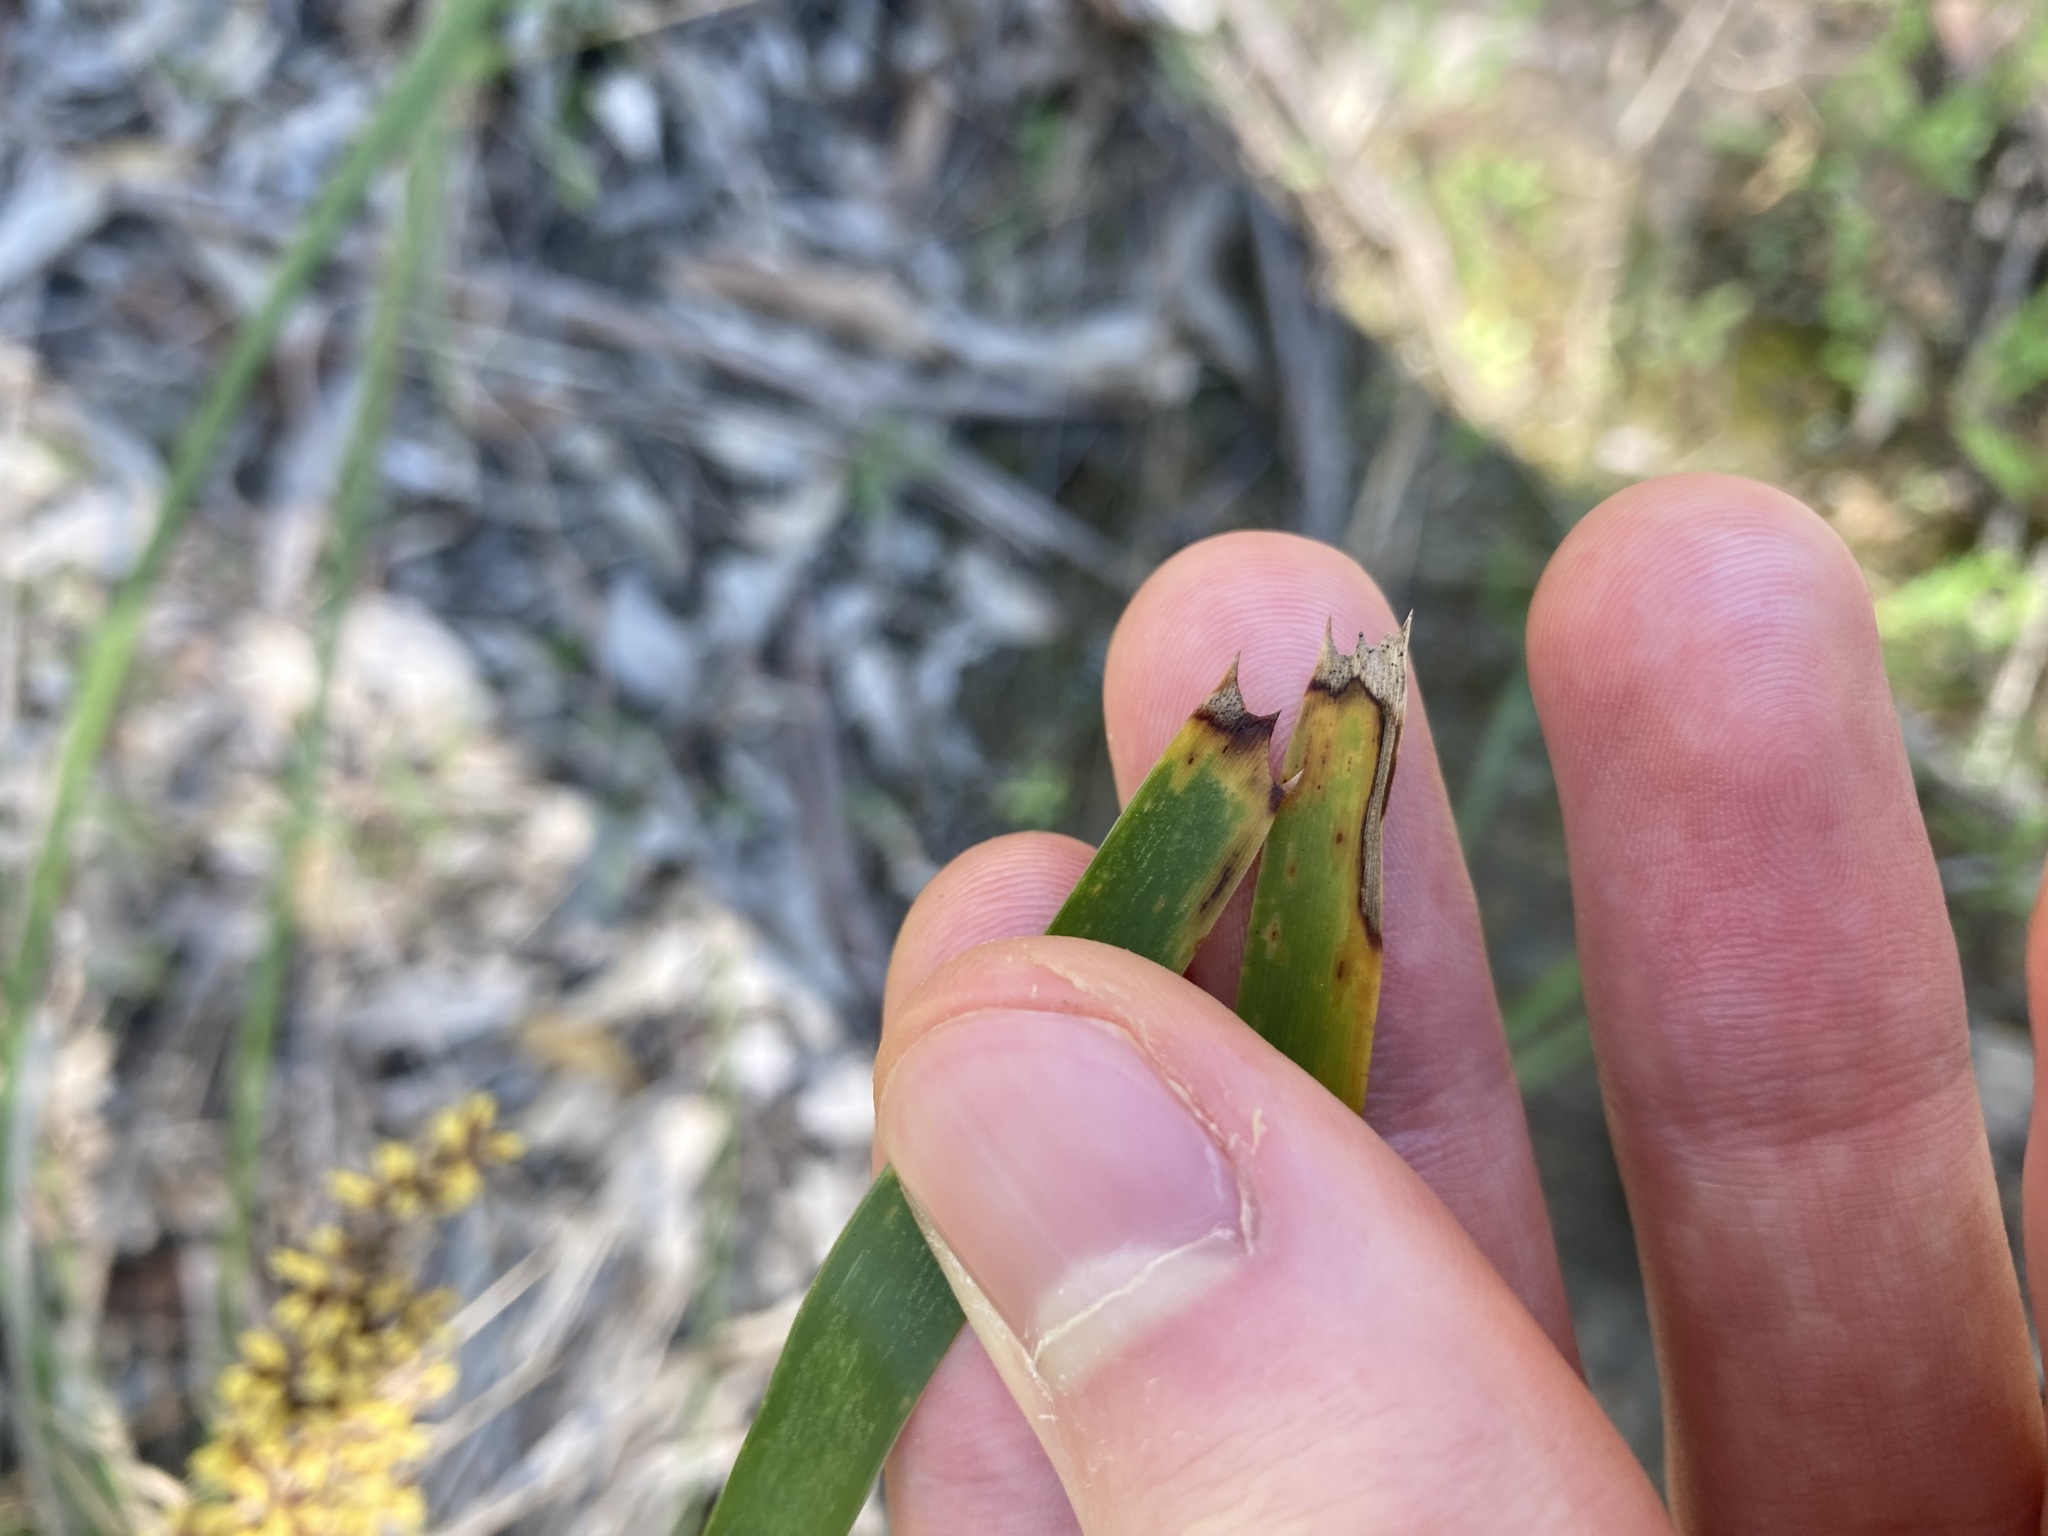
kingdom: Plantae
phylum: Tracheophyta
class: Liliopsida
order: Asparagales
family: Asparagaceae
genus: Lomandra
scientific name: Lomandra longifolia
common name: Longleaf mat-rush
